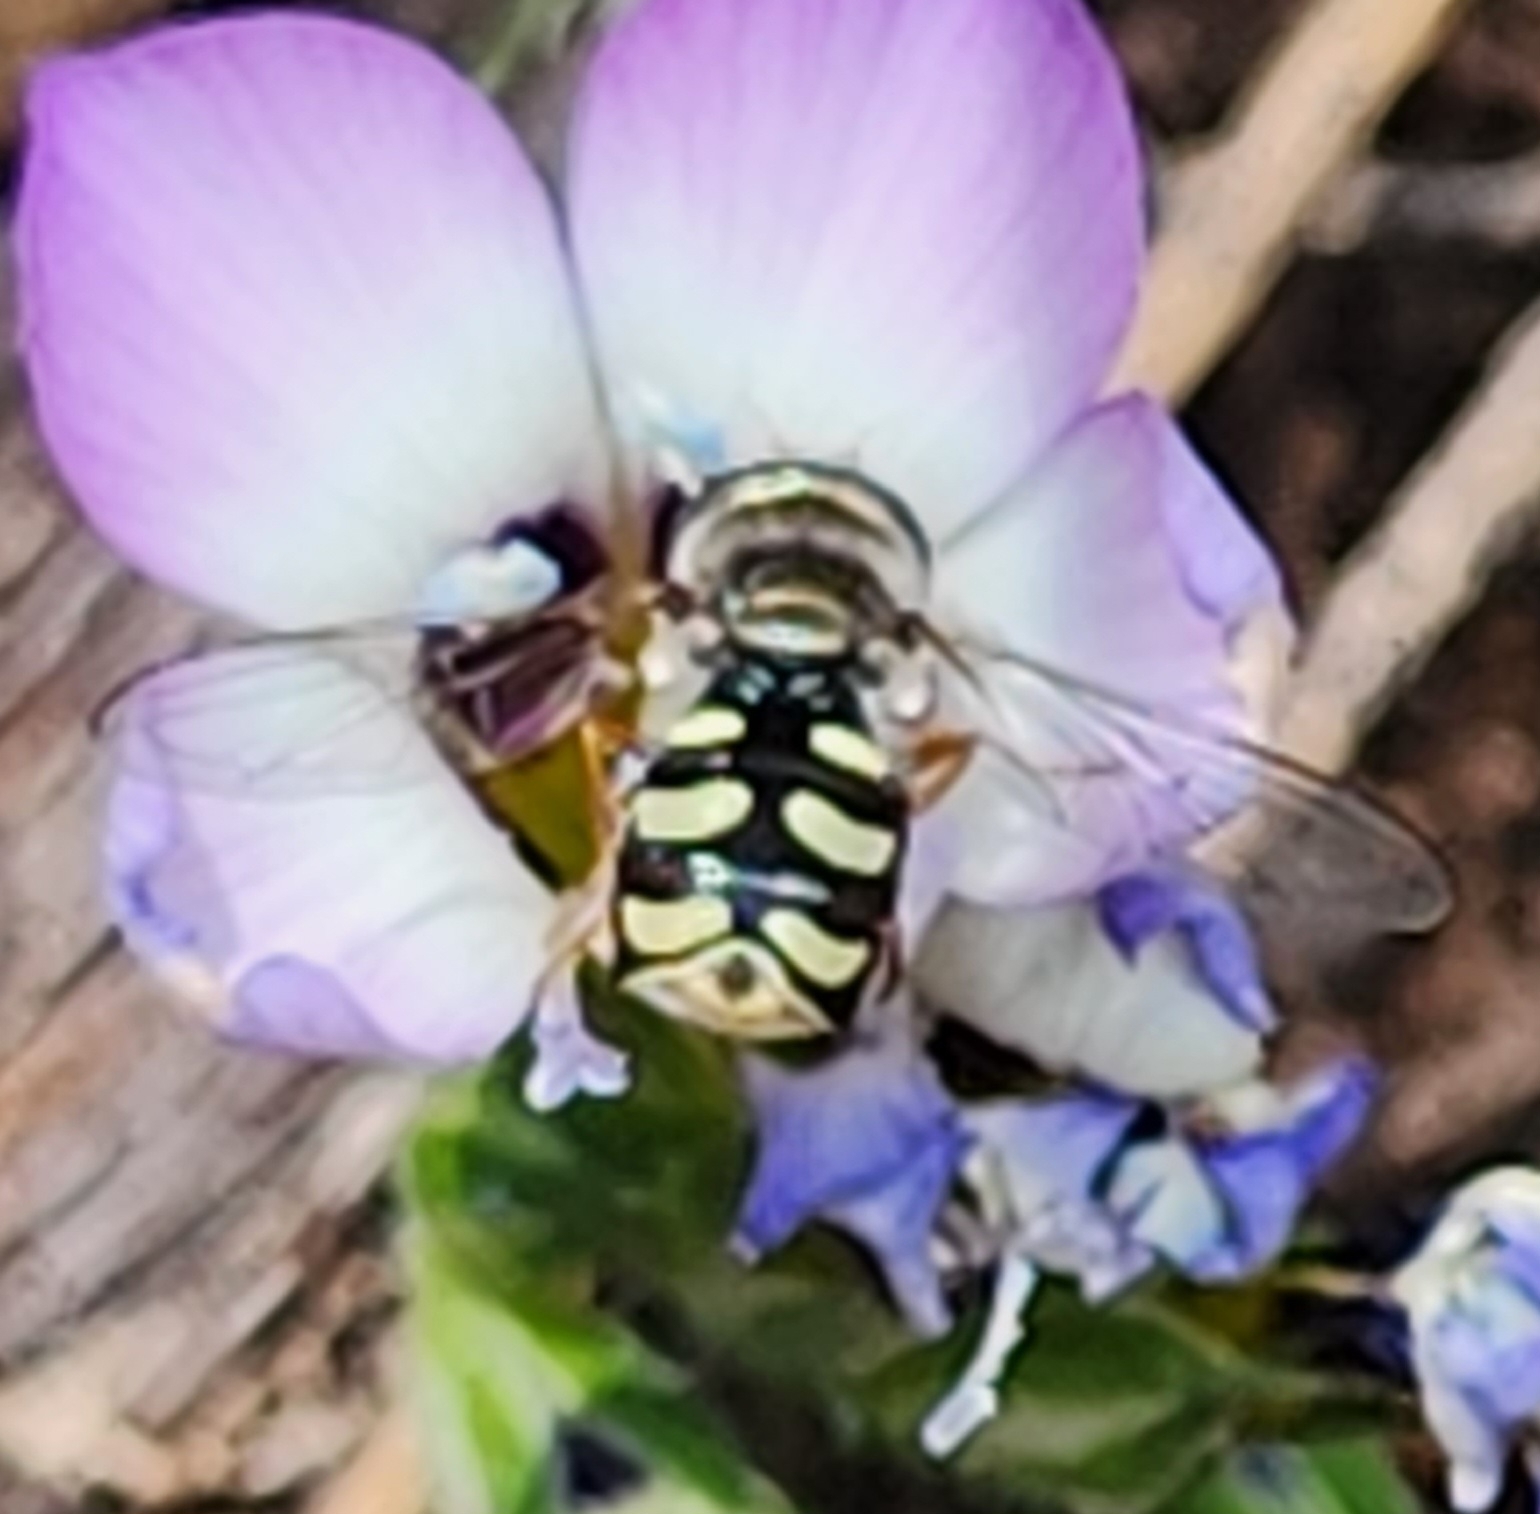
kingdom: Animalia
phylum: Arthropoda
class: Insecta
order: Diptera
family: Syrphidae
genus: Eupeodes
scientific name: Eupeodes volucris
